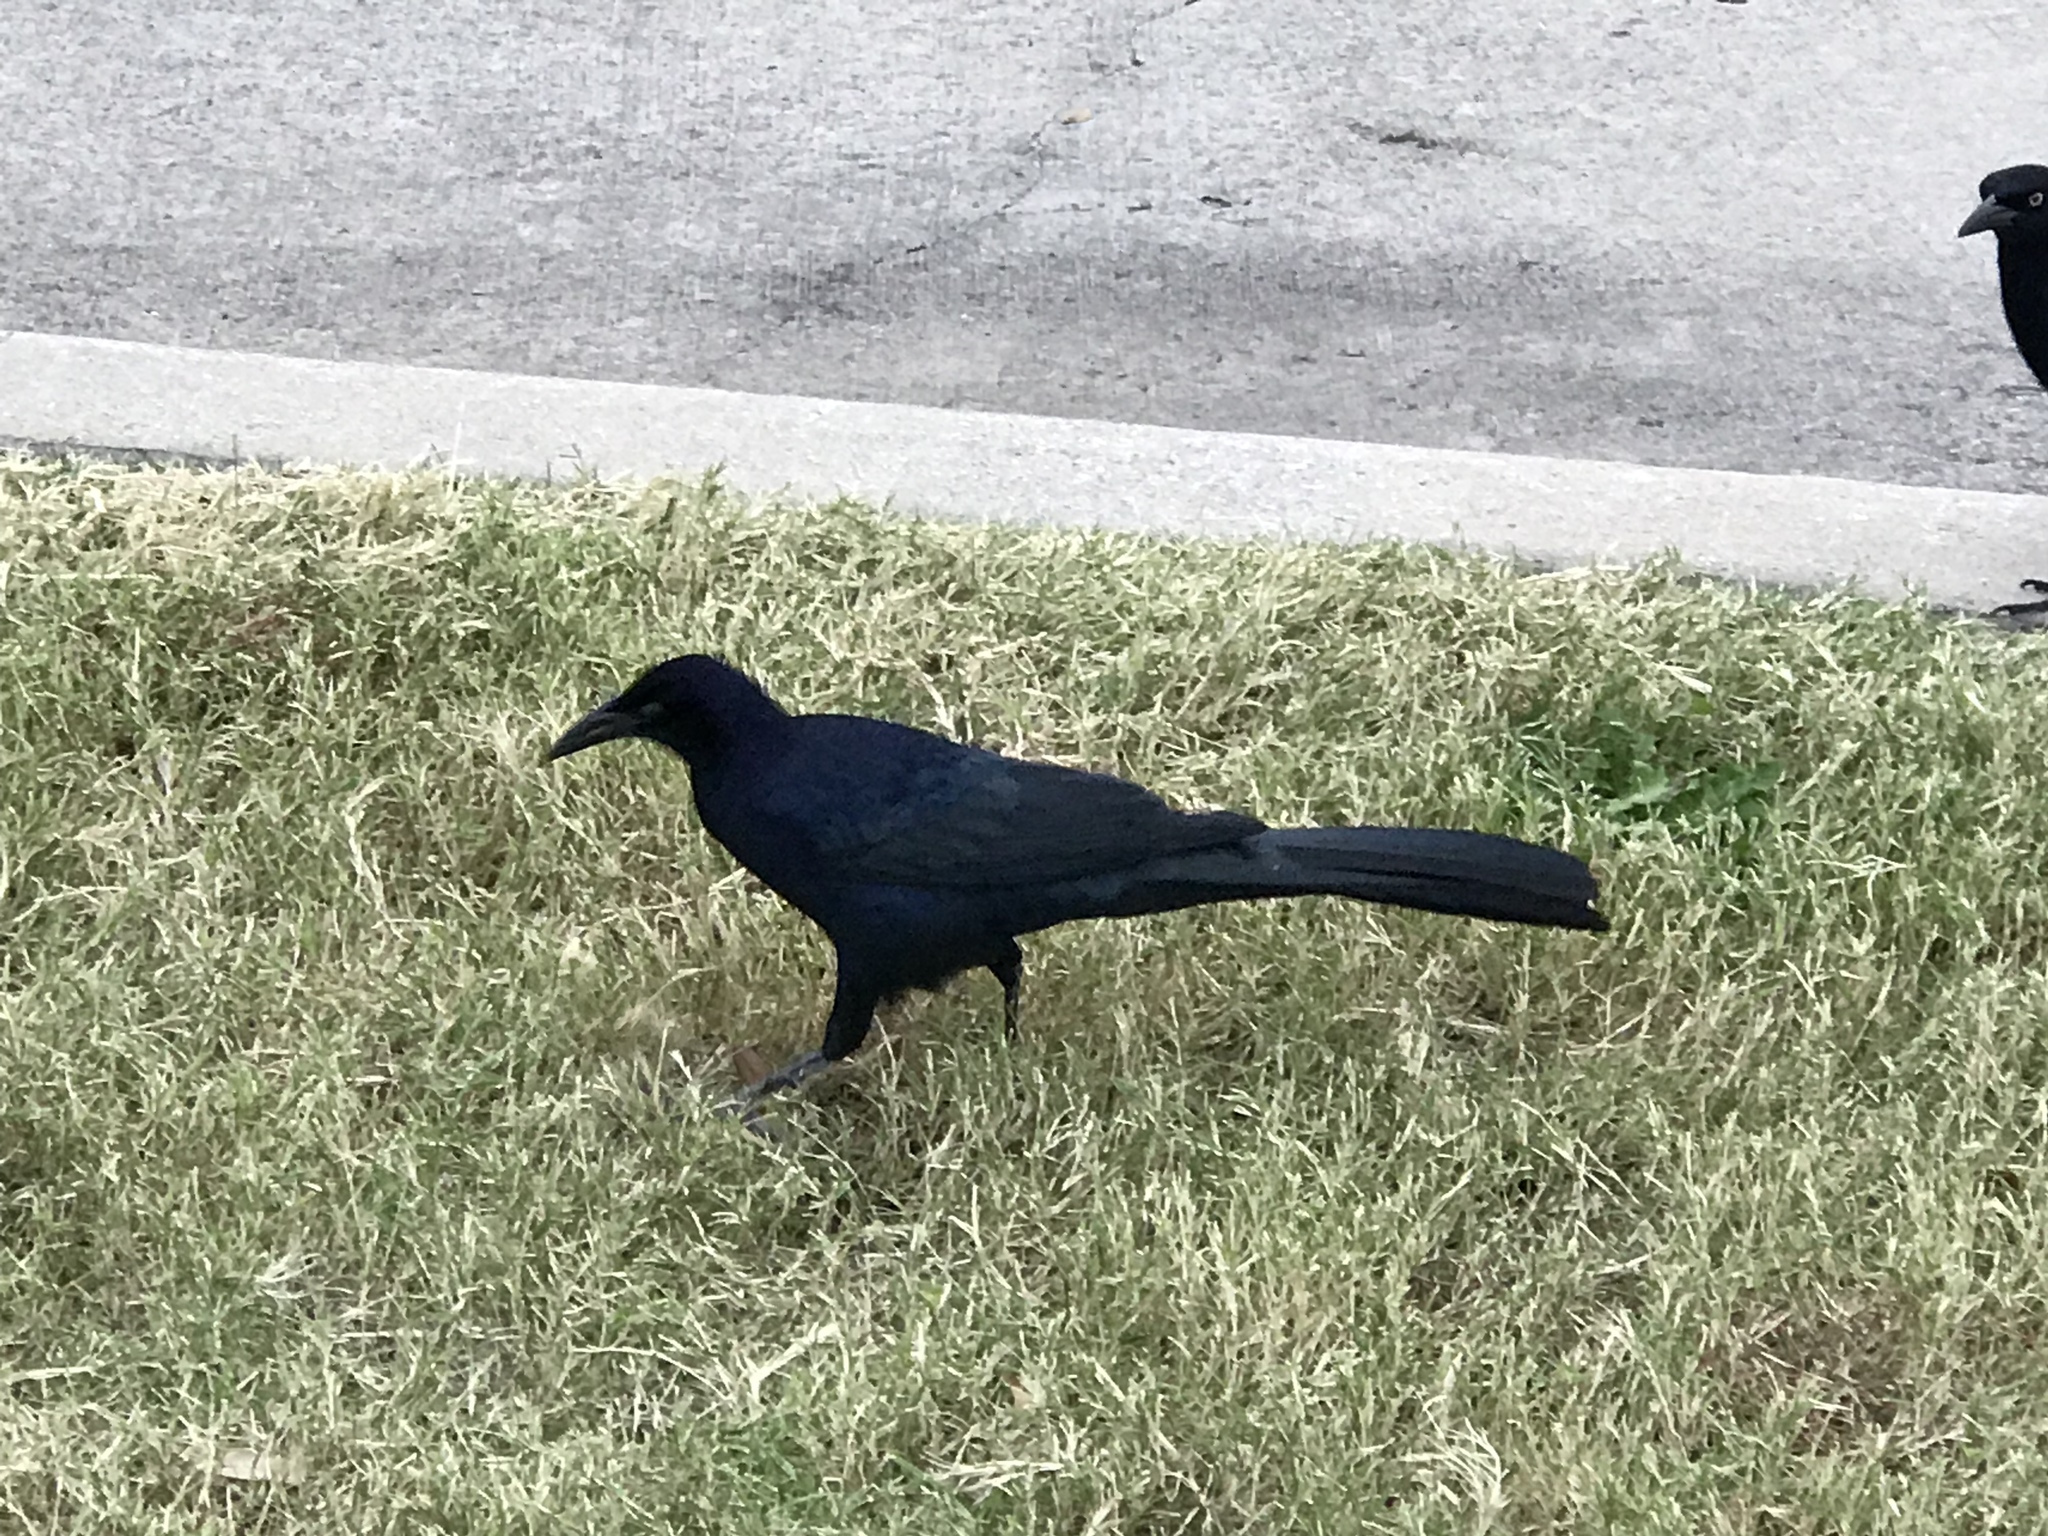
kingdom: Animalia
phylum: Chordata
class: Aves
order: Passeriformes
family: Icteridae
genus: Quiscalus
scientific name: Quiscalus mexicanus
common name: Great-tailed grackle
